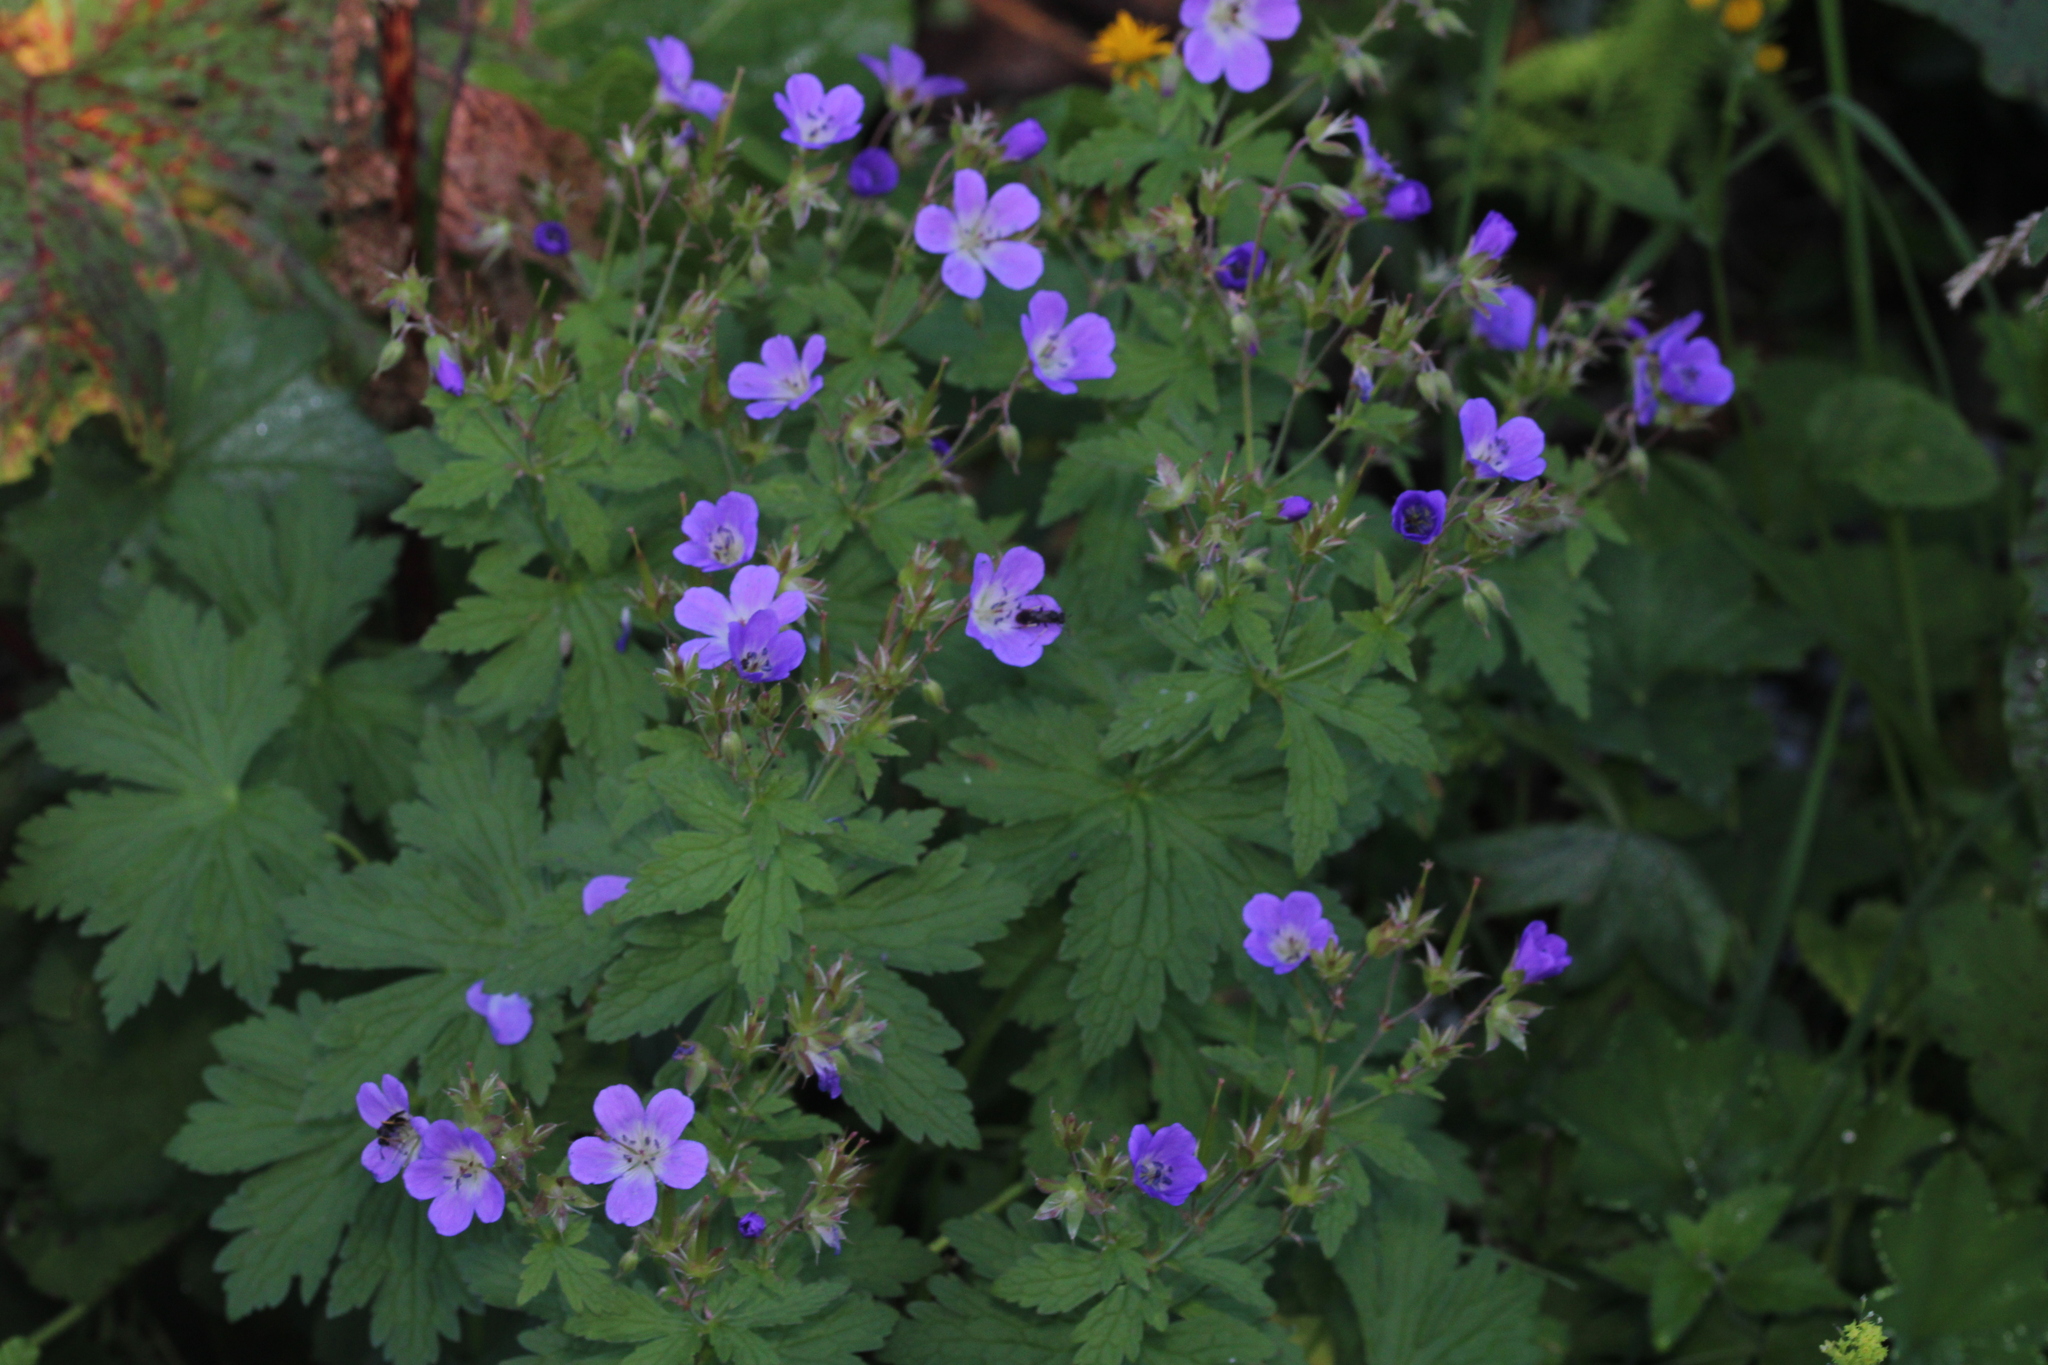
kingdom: Plantae
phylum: Tracheophyta
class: Magnoliopsida
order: Geraniales
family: Geraniaceae
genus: Geranium
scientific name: Geranium sylvaticum
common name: Wood crane's-bill
